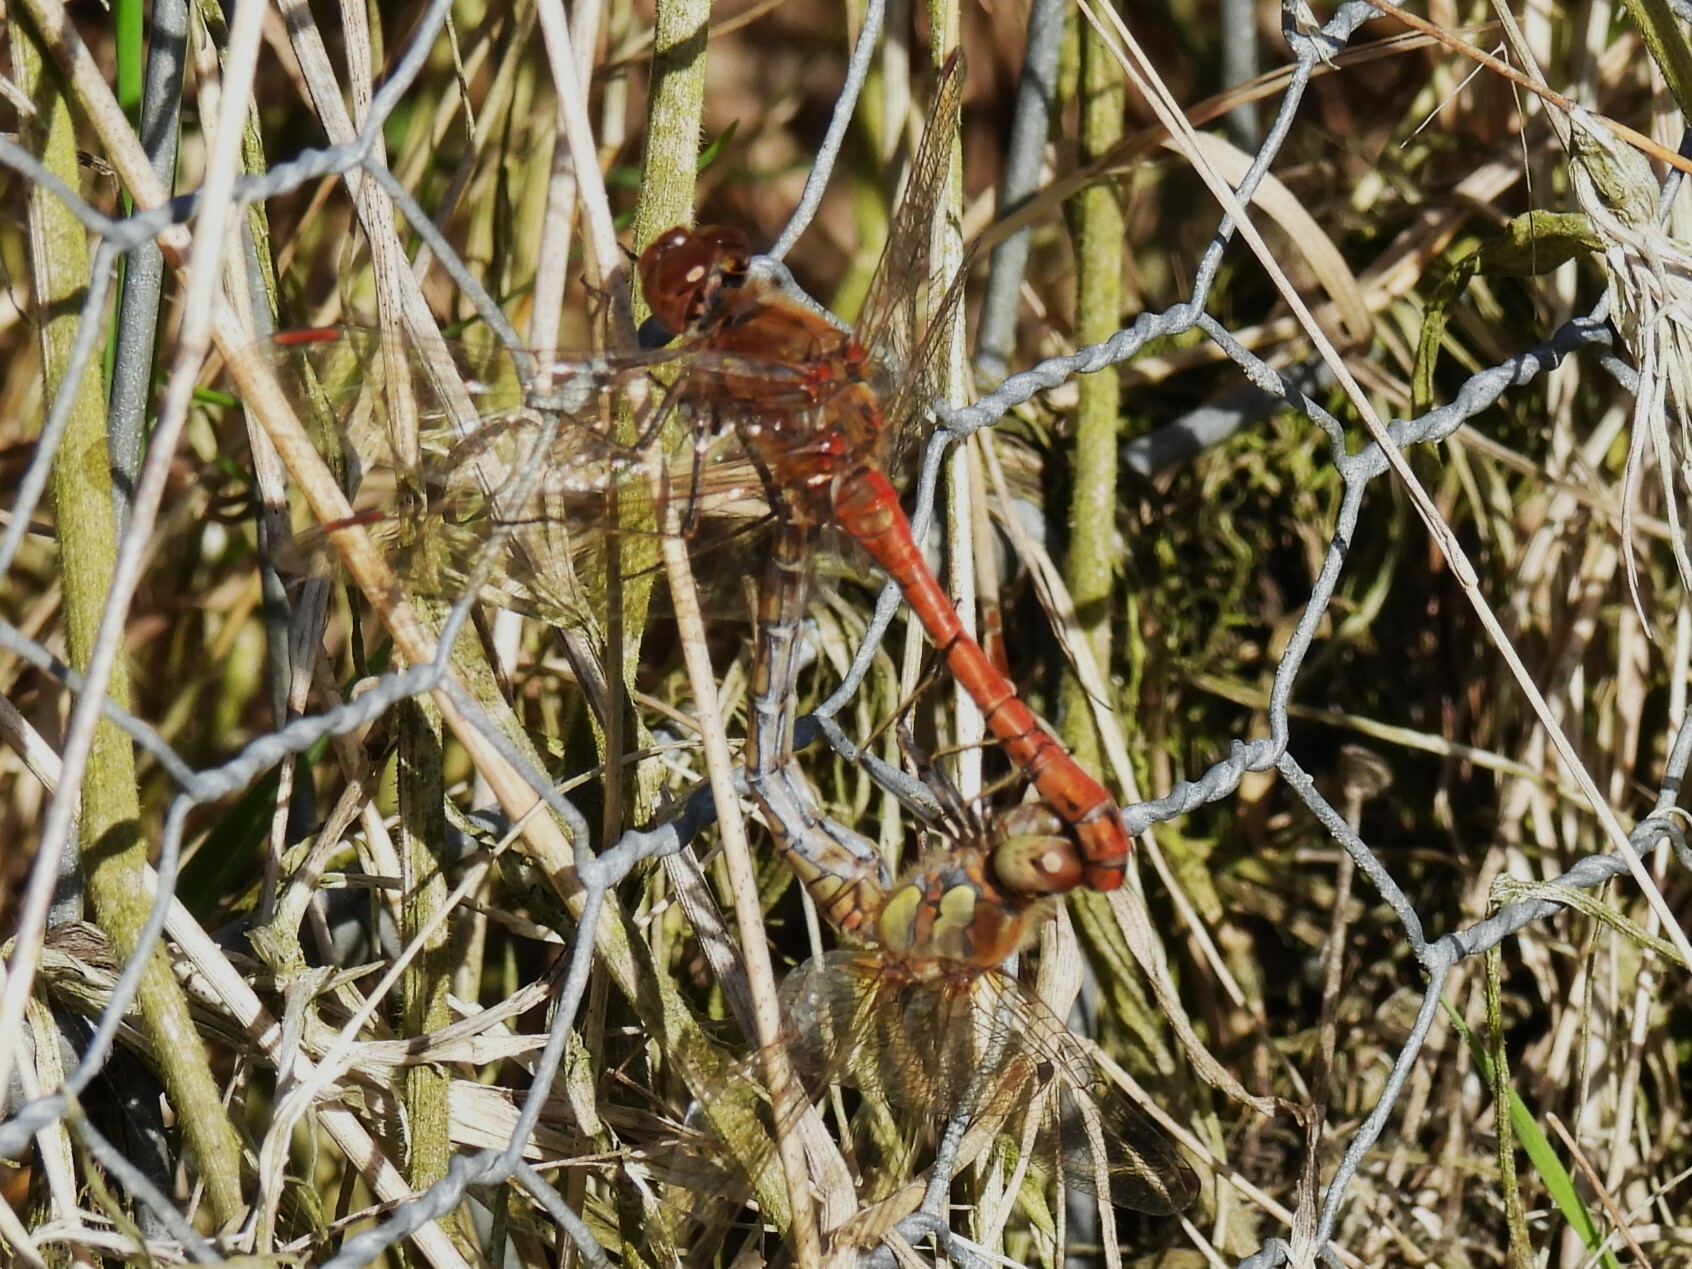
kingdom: Animalia
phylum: Arthropoda
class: Insecta
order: Odonata
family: Libellulidae
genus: Sympetrum
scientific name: Sympetrum striolatum
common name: Common darter
